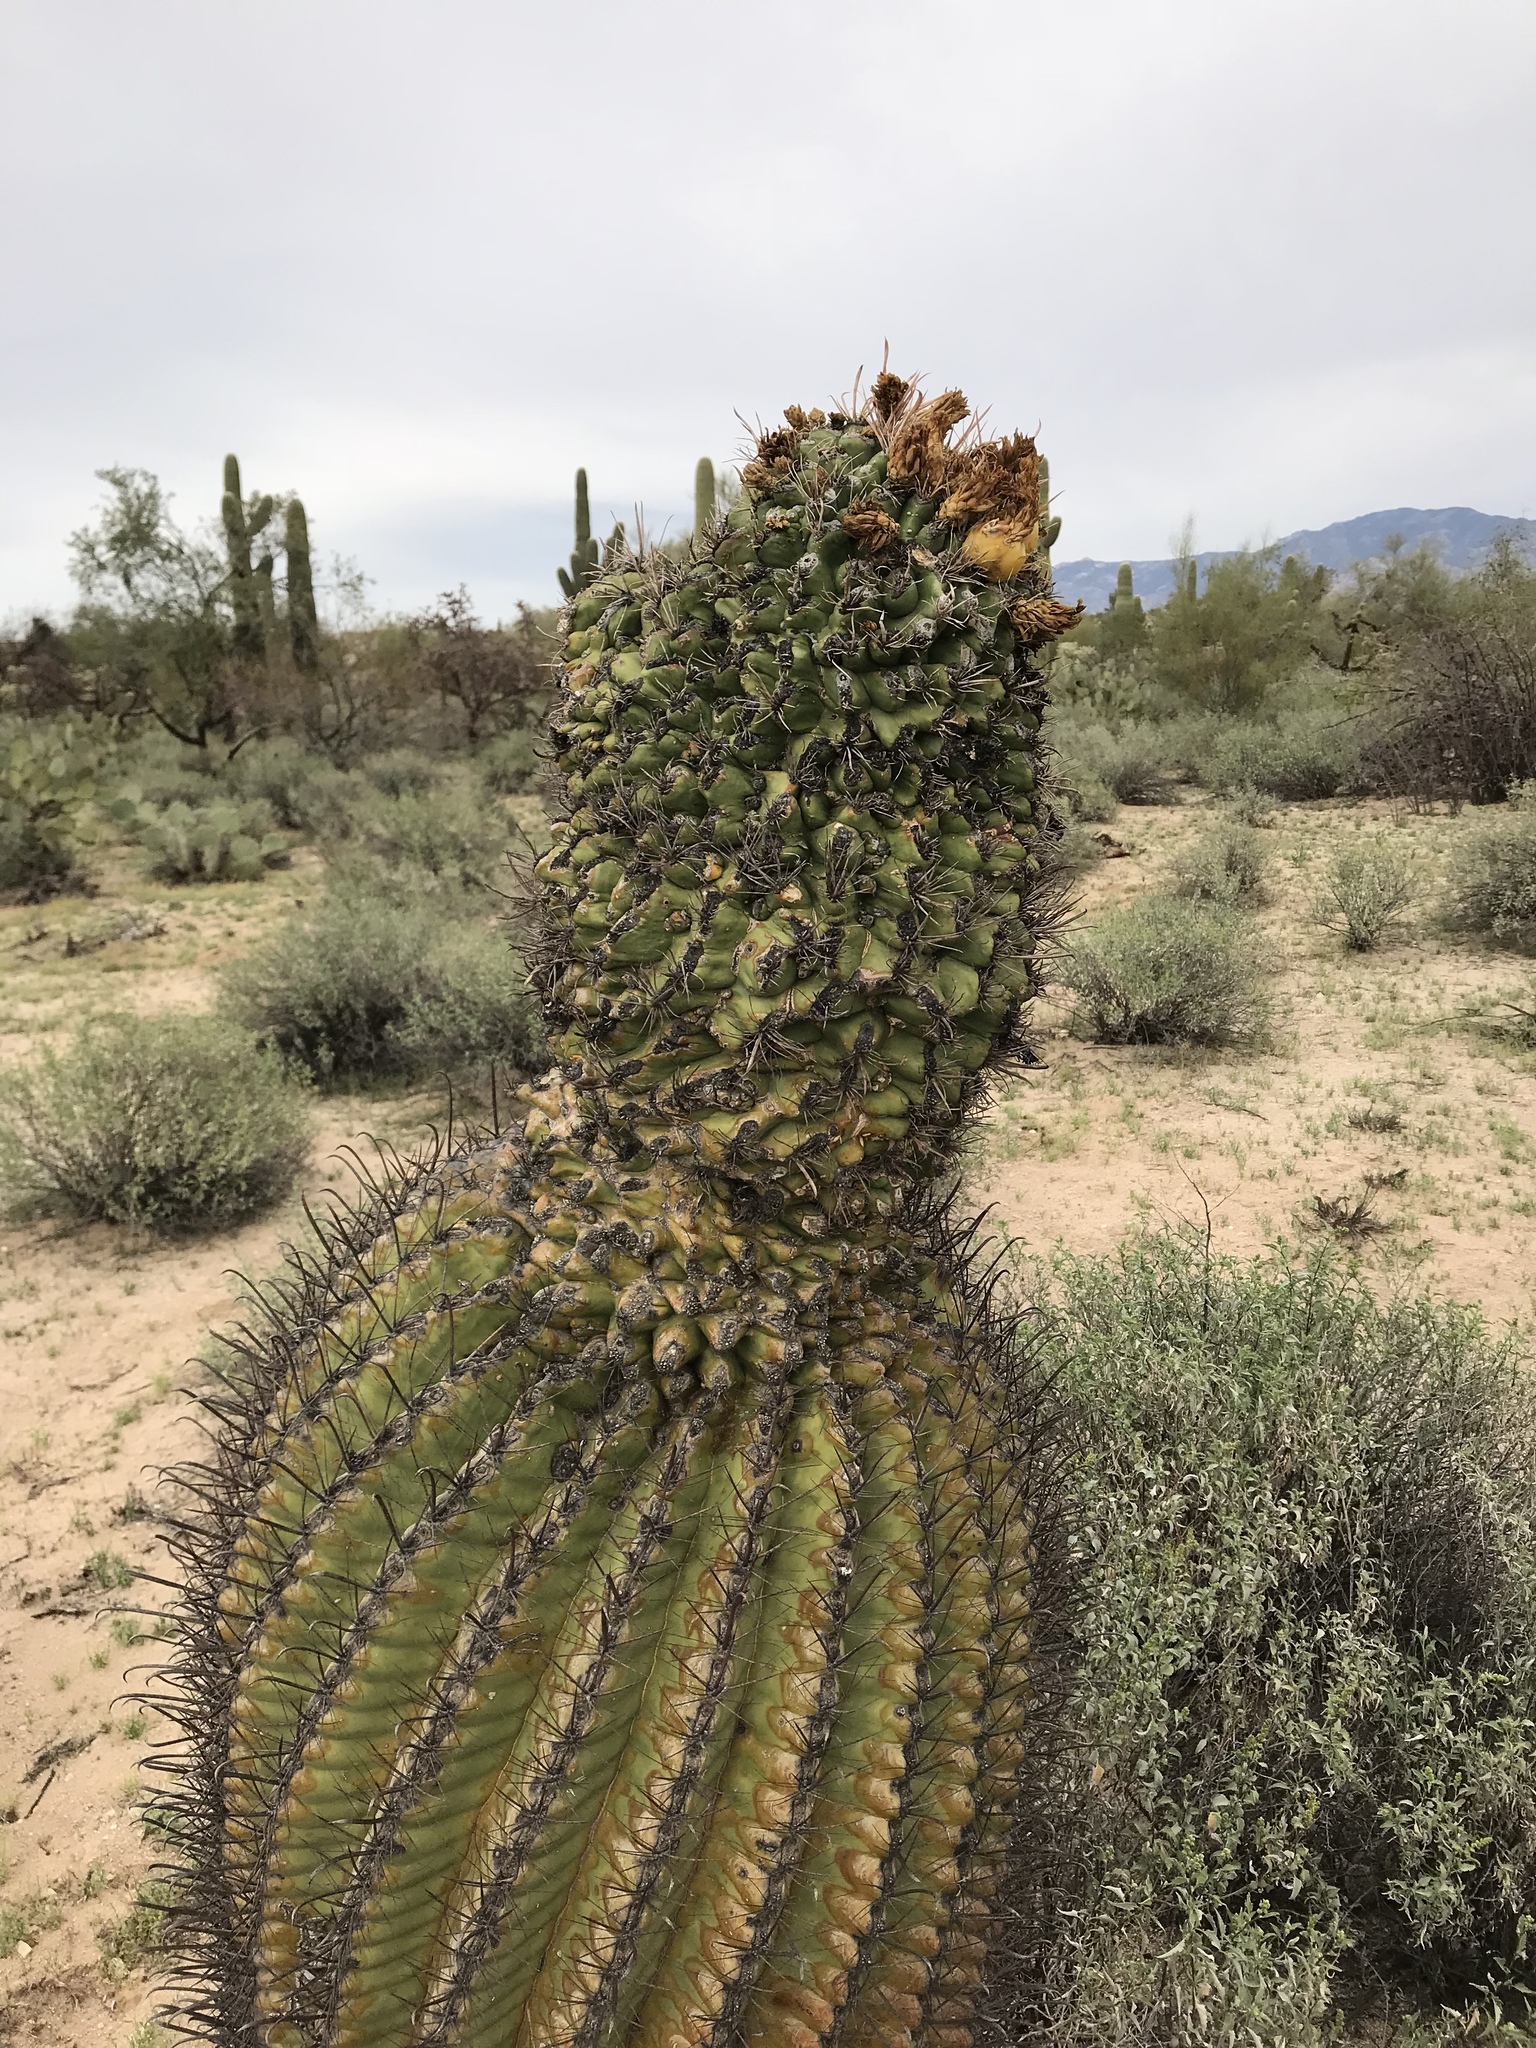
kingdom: Plantae
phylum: Tracheophyta
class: Magnoliopsida
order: Caryophyllales
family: Cactaceae
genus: Ferocactus
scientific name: Ferocactus wislizeni
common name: Candy barrel cactus
